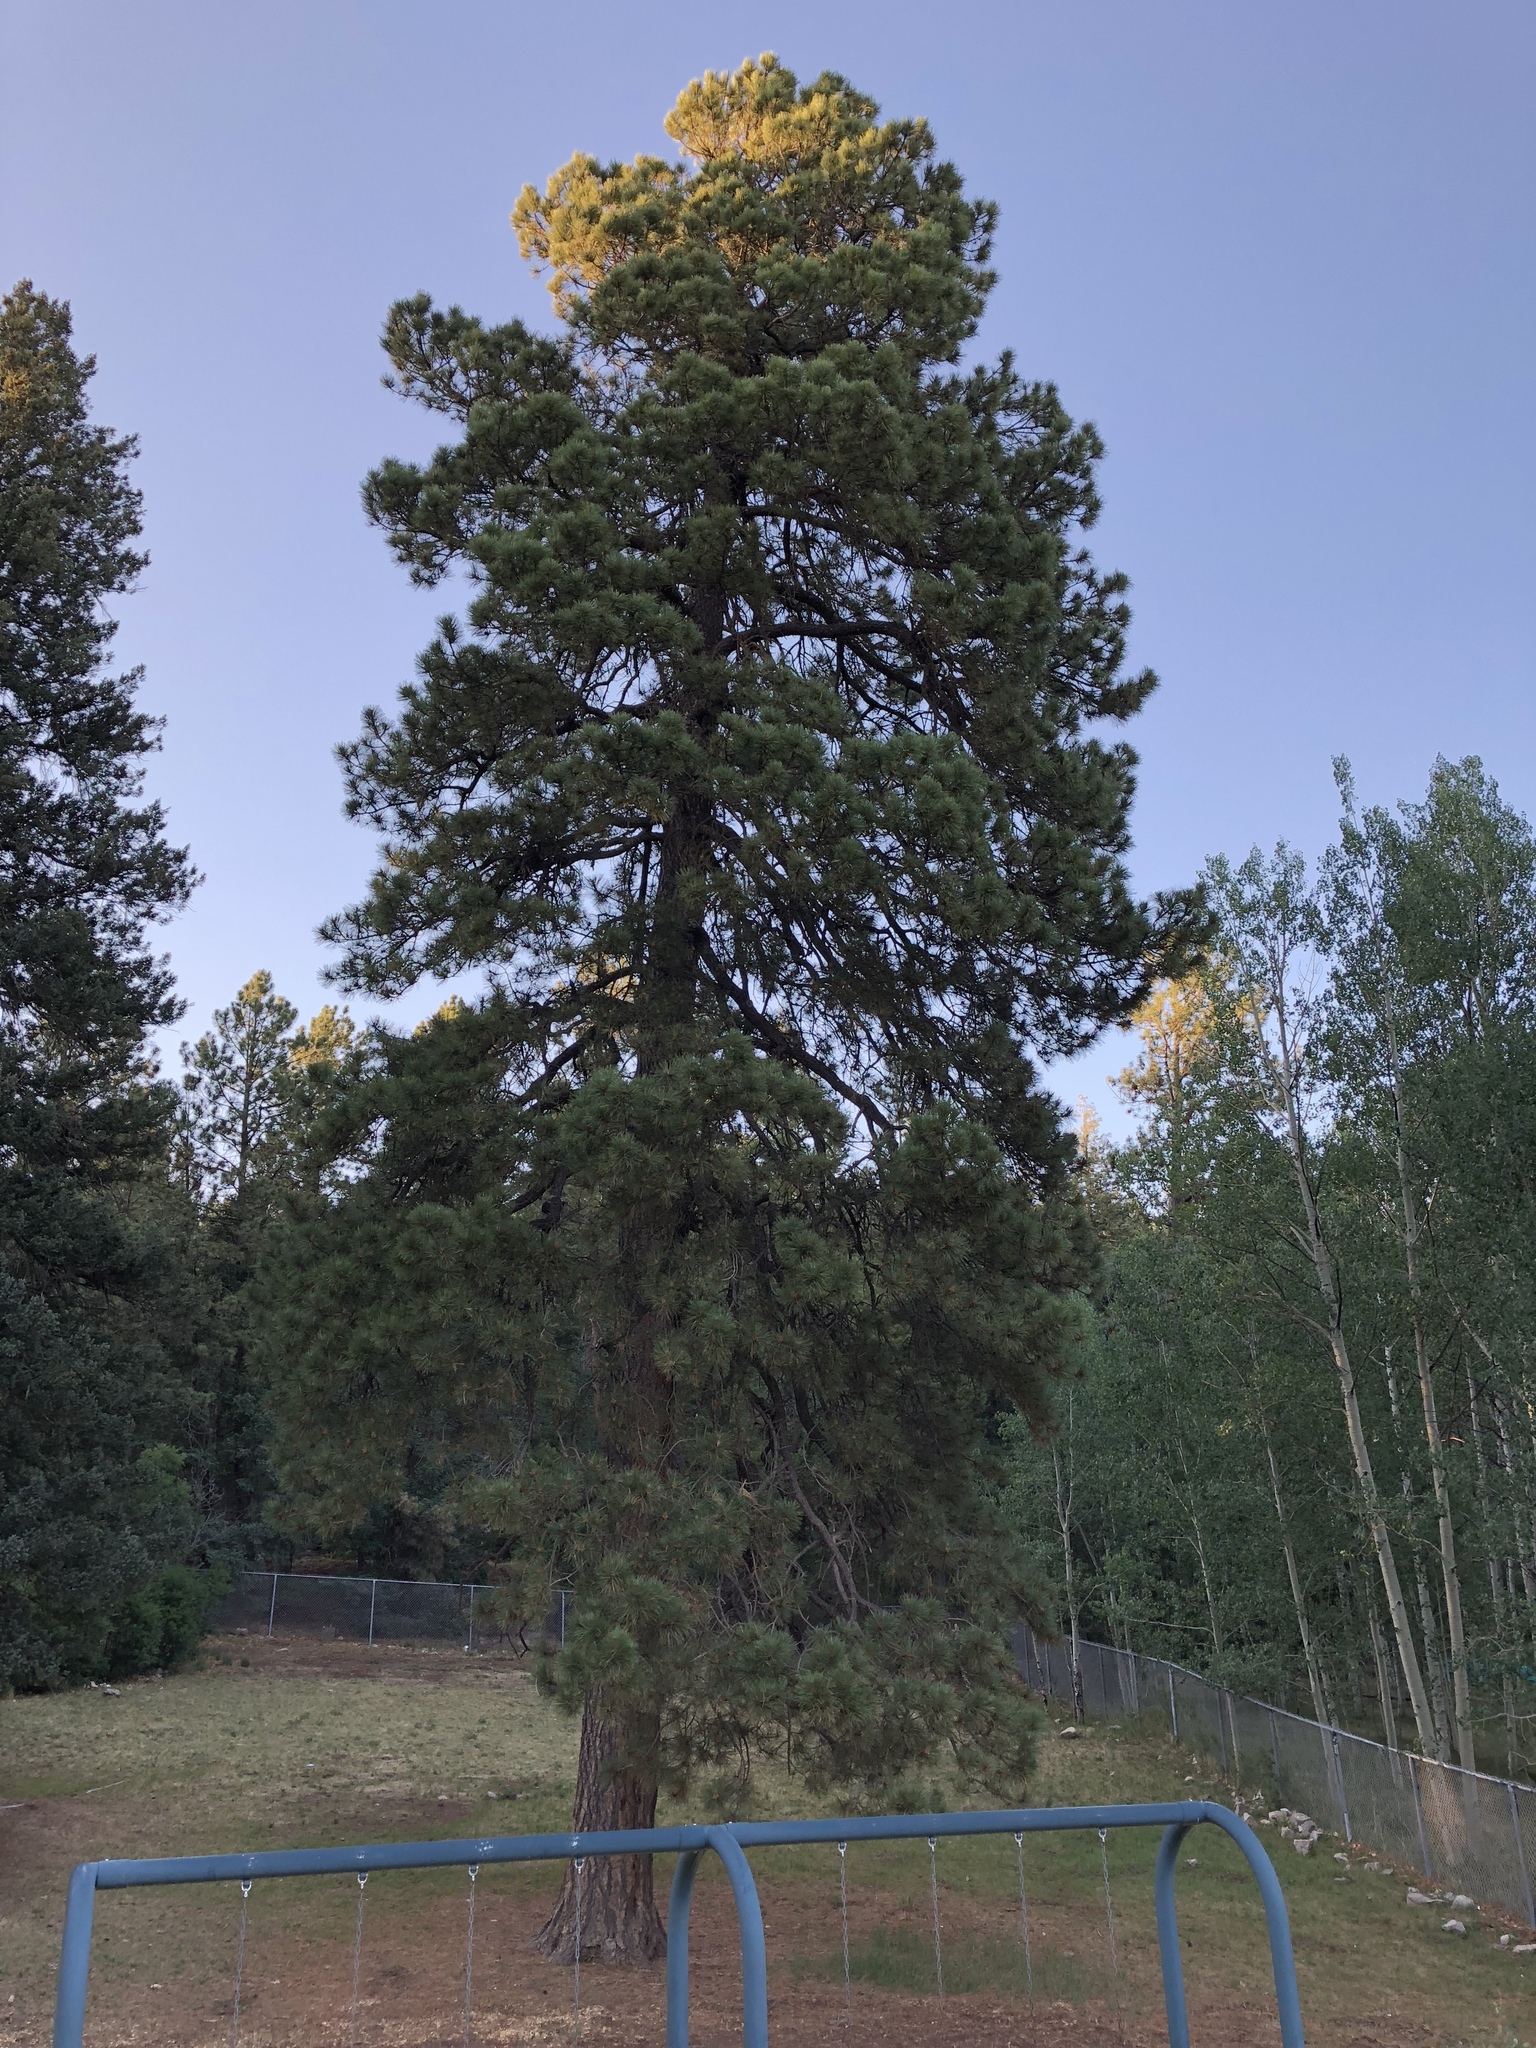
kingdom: Plantae
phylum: Tracheophyta
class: Pinopsida
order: Pinales
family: Pinaceae
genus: Pinus
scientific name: Pinus ponderosa
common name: Western yellow-pine
